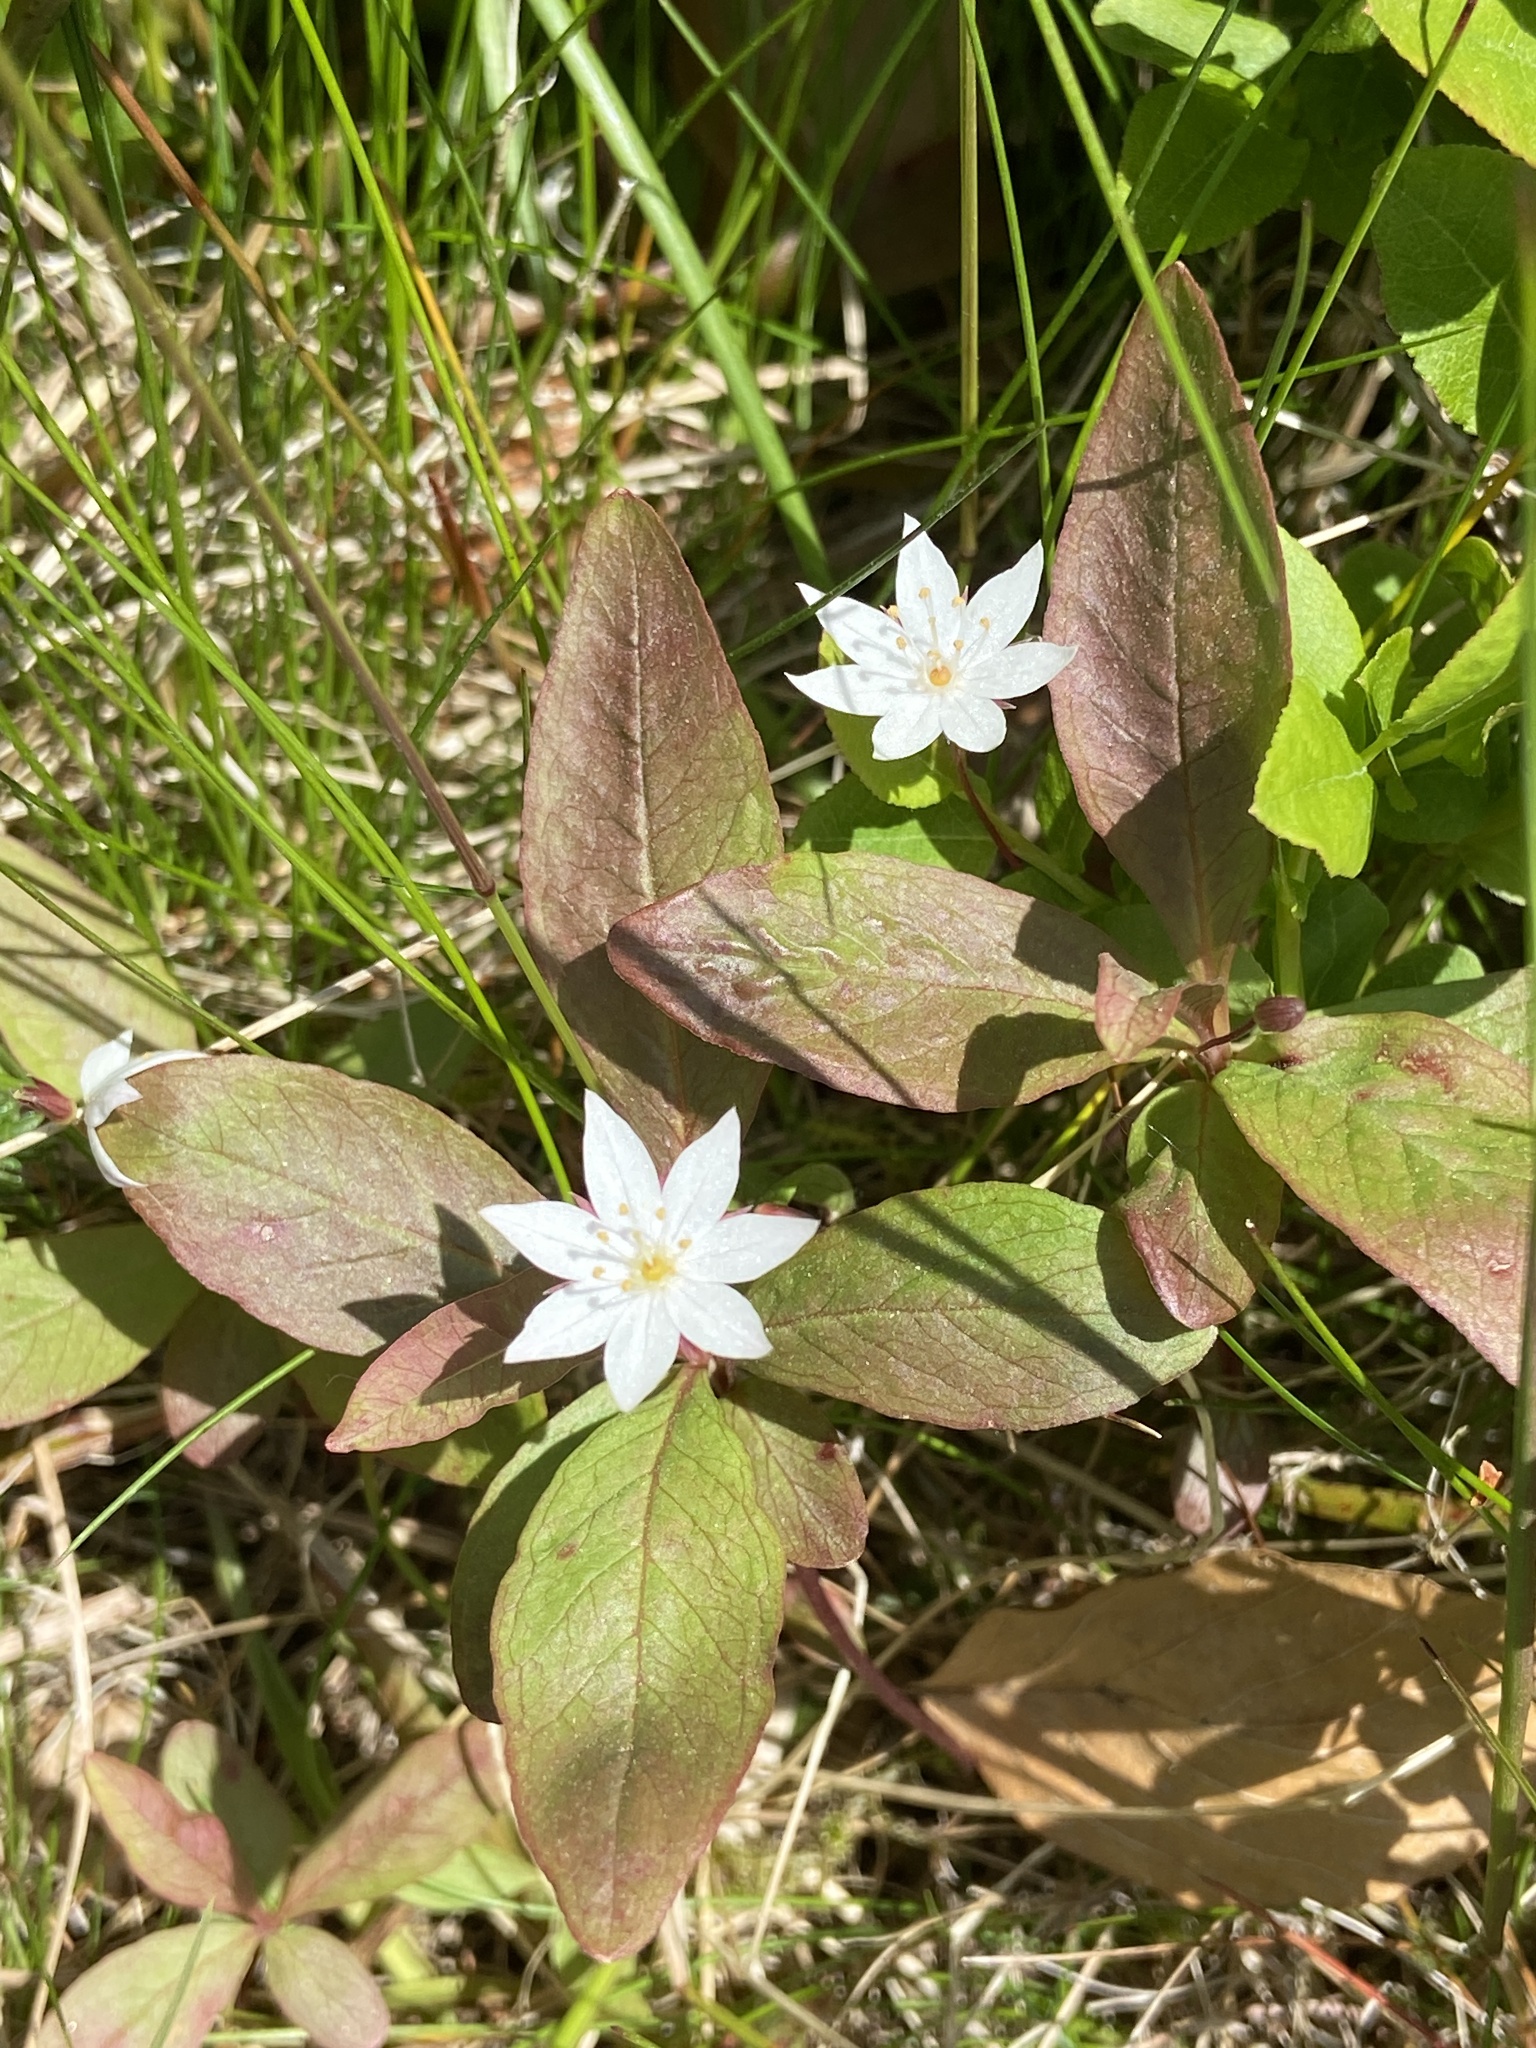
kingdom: Plantae
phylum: Tracheophyta
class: Magnoliopsida
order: Ericales
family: Primulaceae
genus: Lysimachia
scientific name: Lysimachia europaea
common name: Arctic starflower
